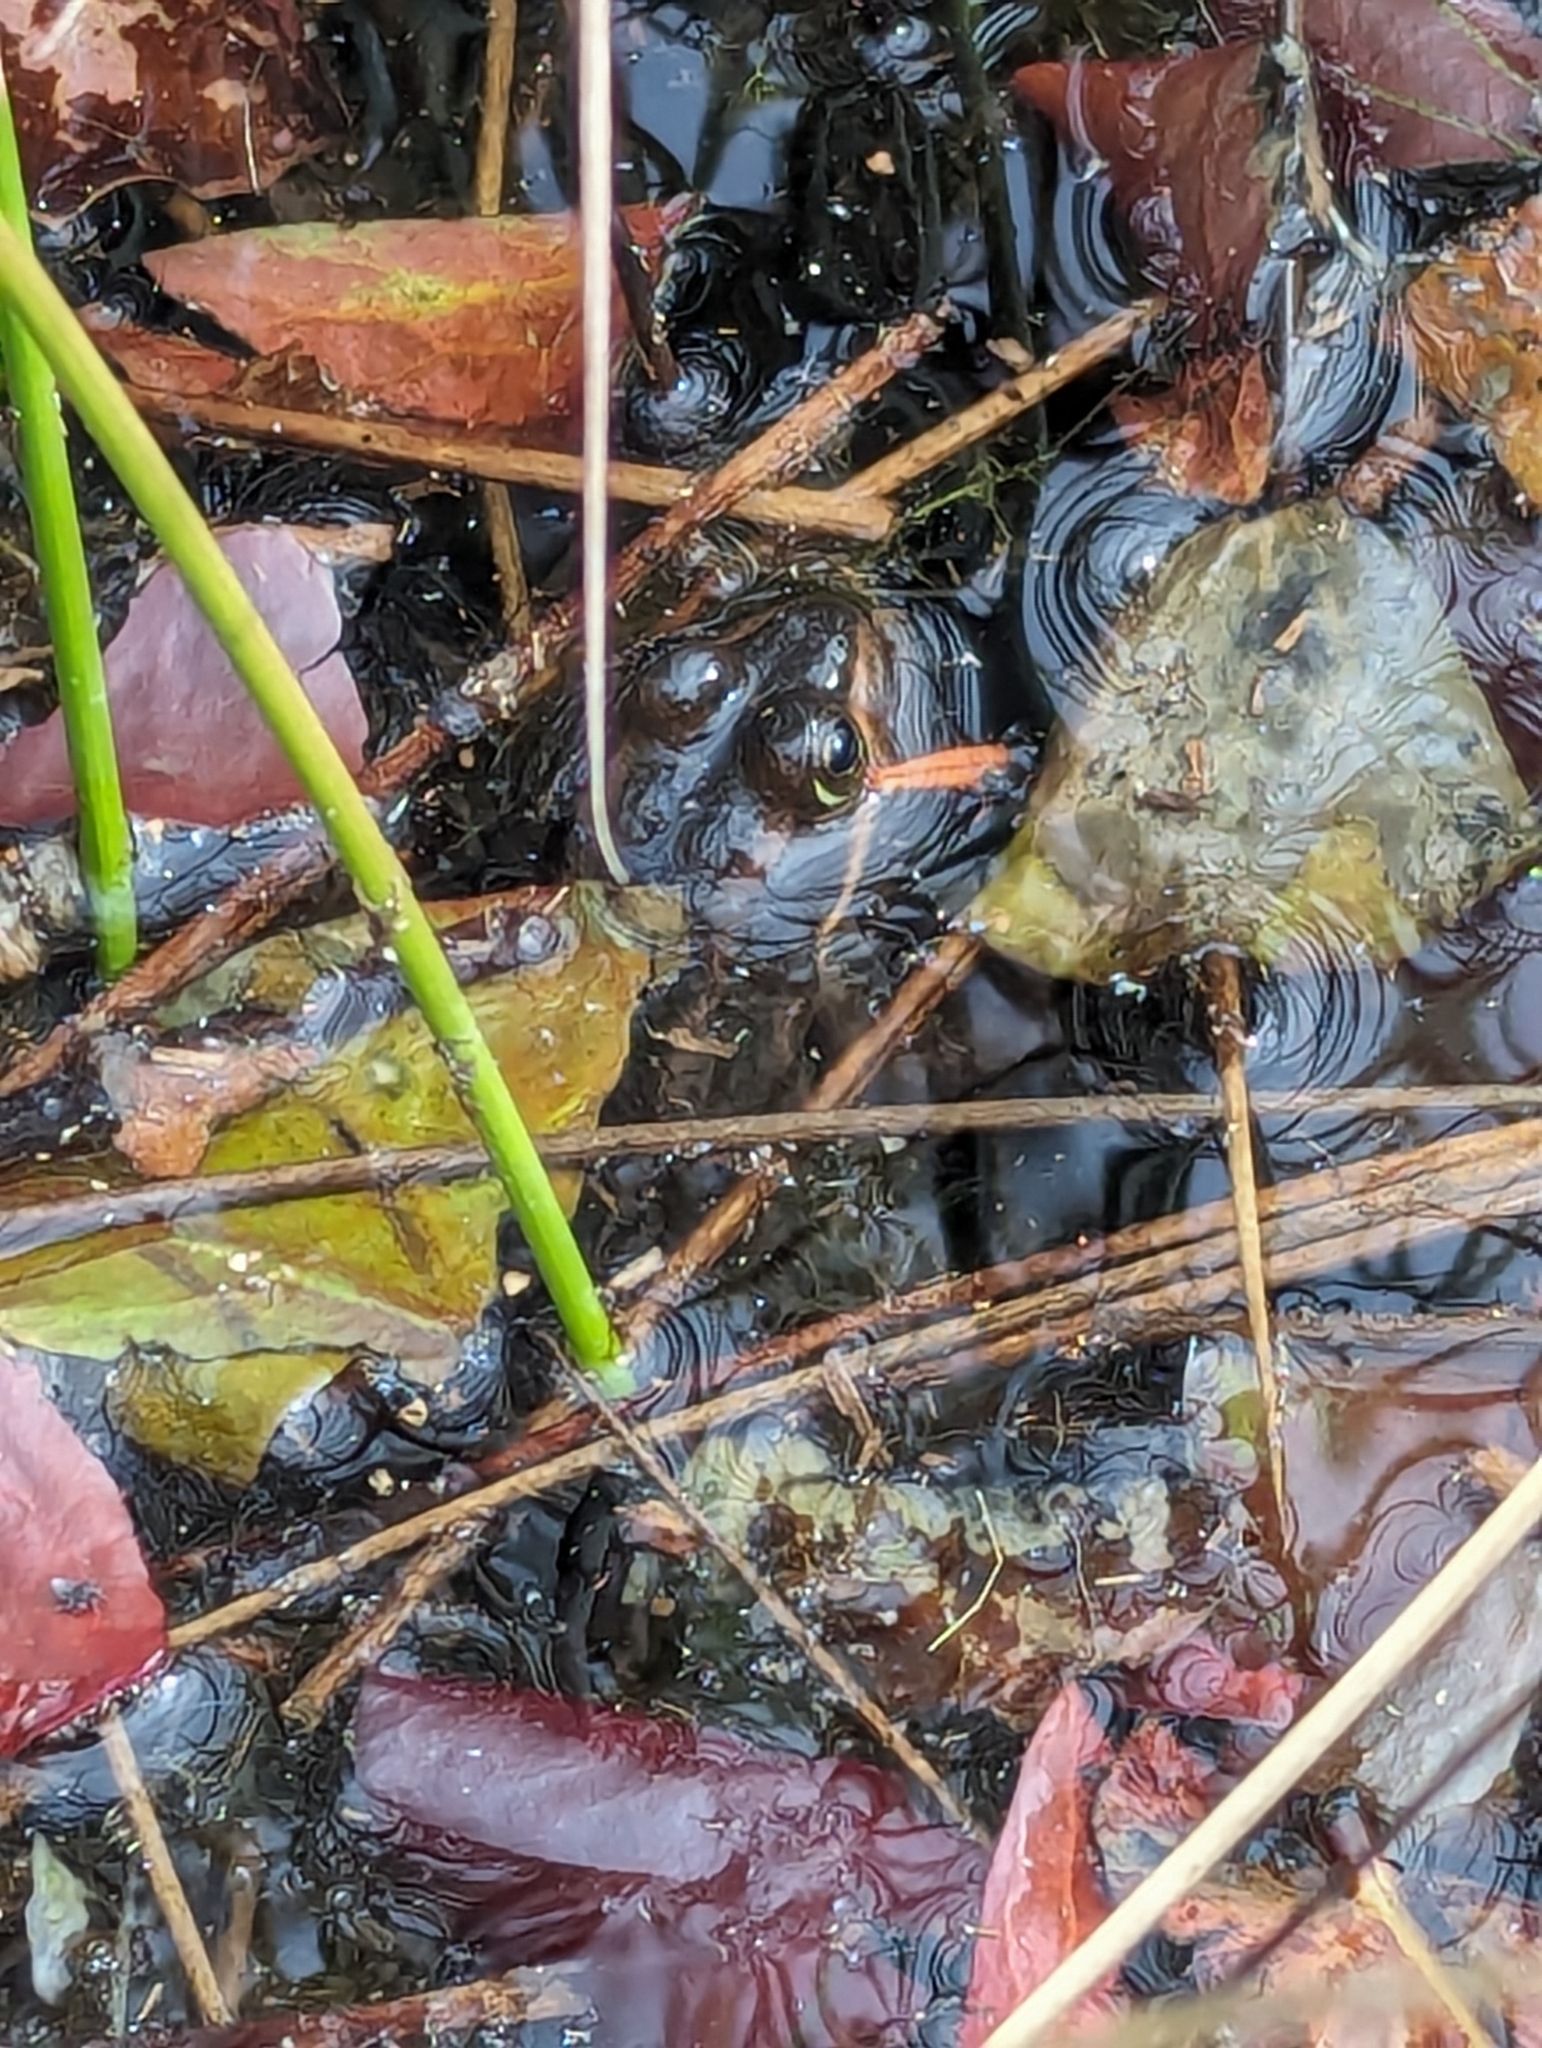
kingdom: Animalia
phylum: Chordata
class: Amphibia
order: Anura
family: Ranidae
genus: Lithobates
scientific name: Lithobates virgatipes
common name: Carpenter frog
